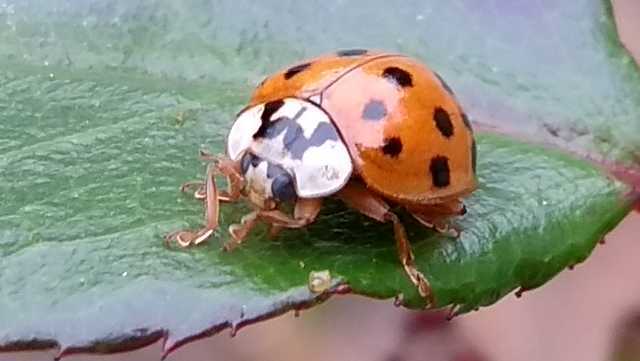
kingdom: Fungi
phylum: Ascomycota
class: Laboulbeniomycetes
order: Laboulbeniales
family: Laboulbeniaceae
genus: Hesperomyces
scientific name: Hesperomyces harmoniae
